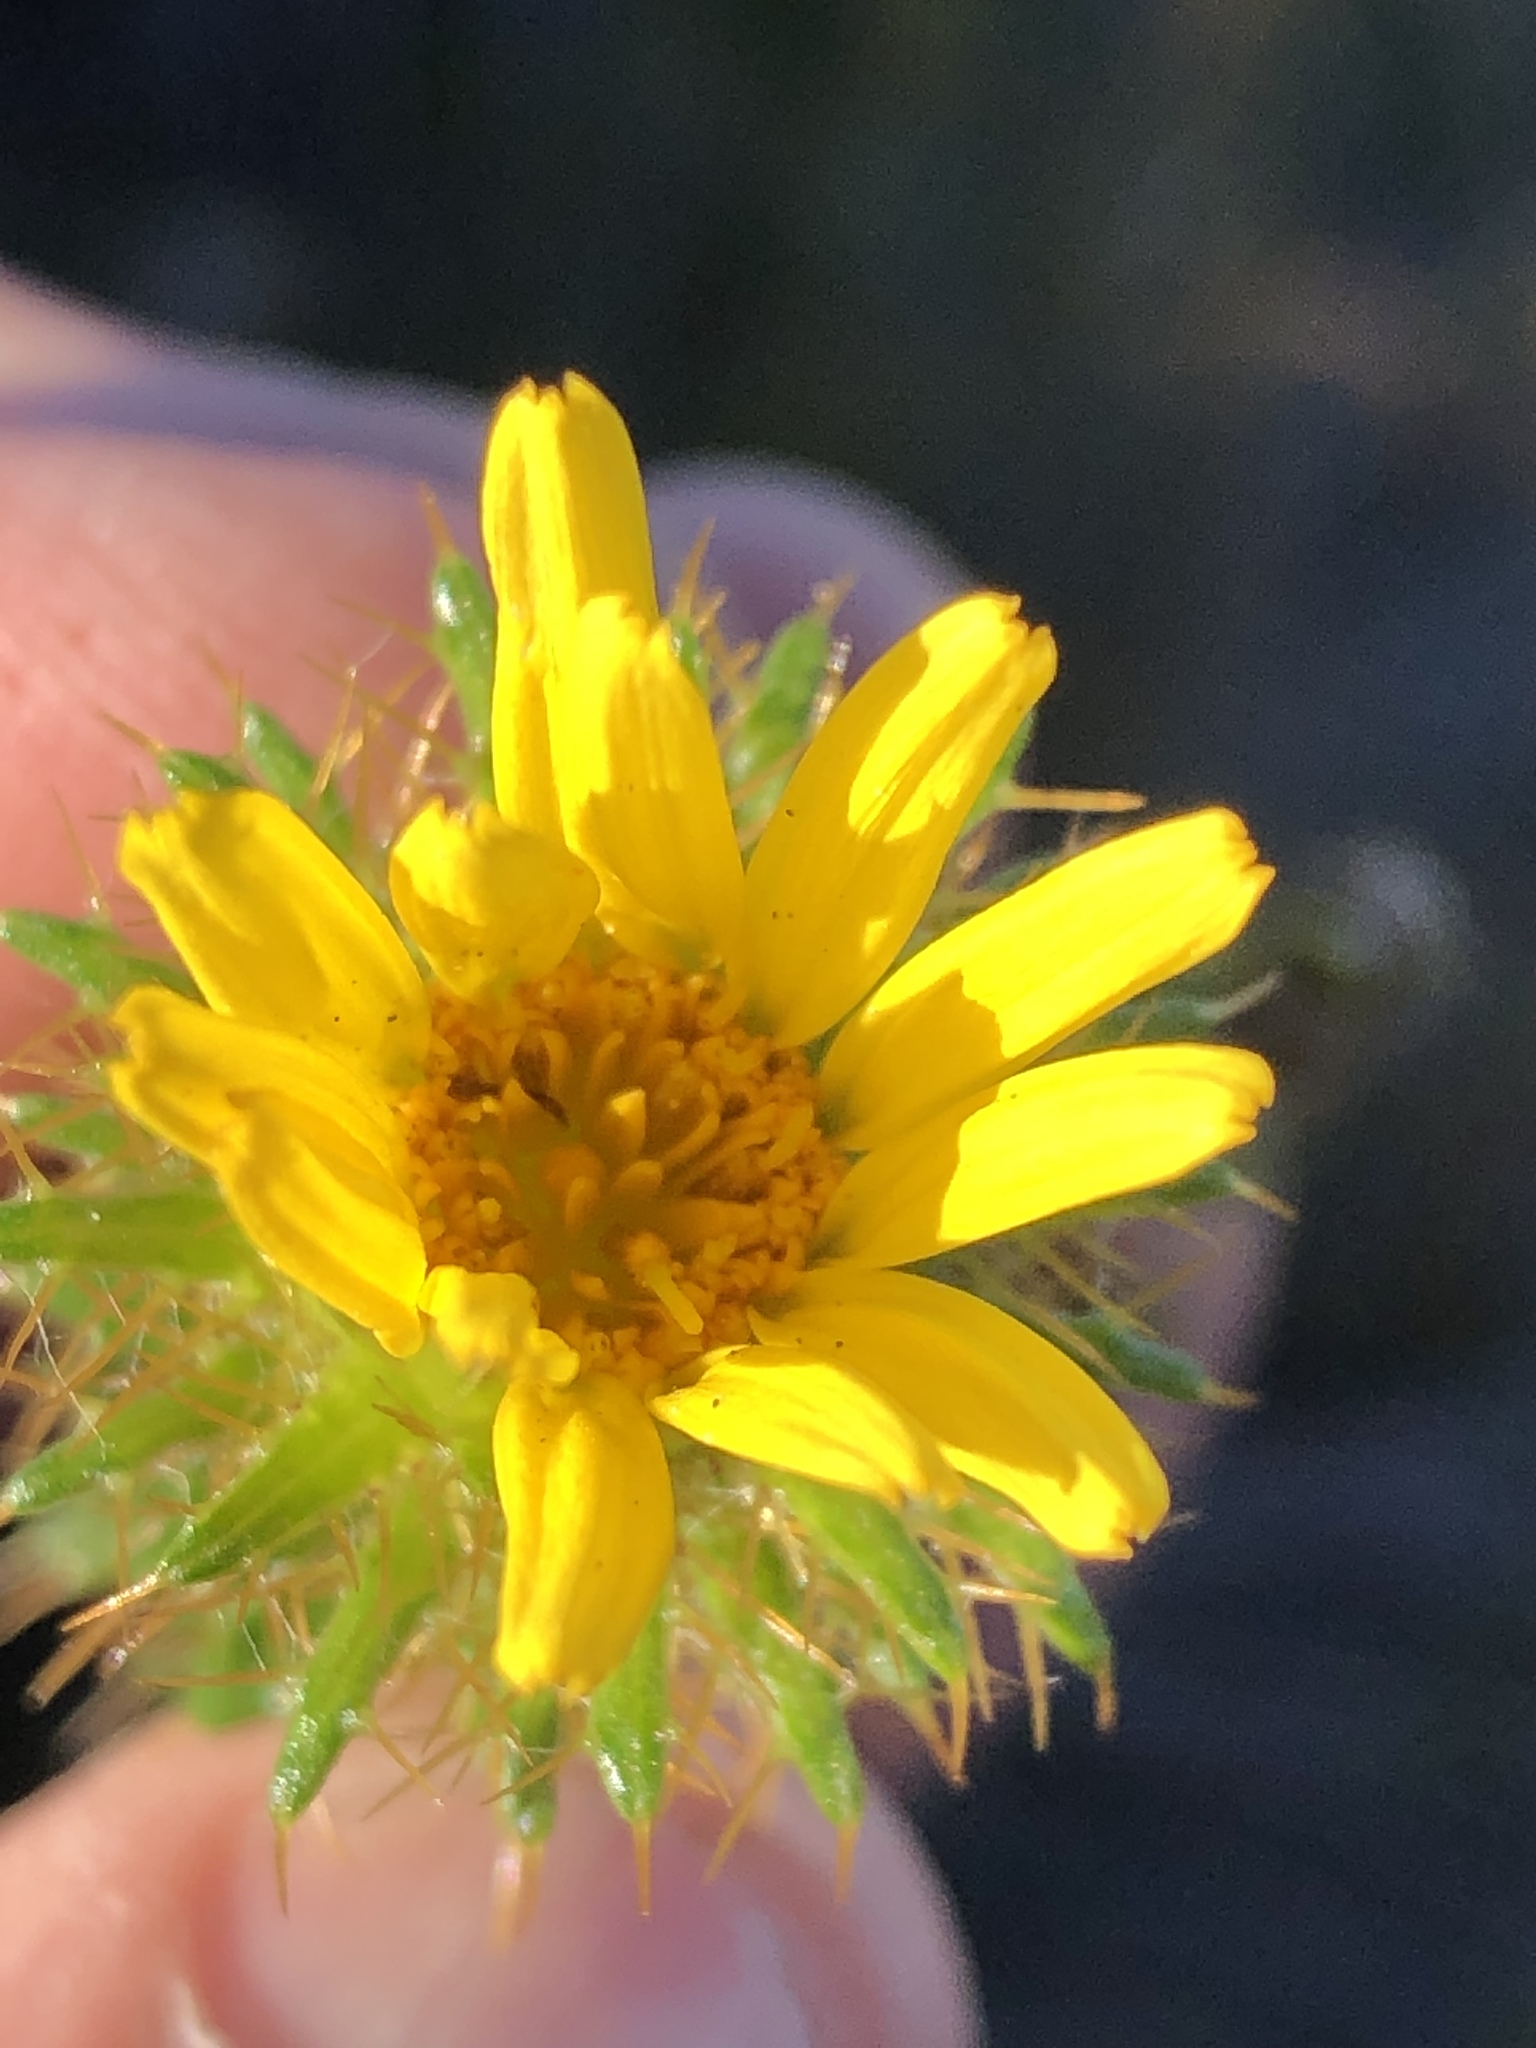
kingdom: Plantae
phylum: Tracheophyta
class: Magnoliopsida
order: Asterales
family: Asteraceae
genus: Cullumia
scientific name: Cullumia carlinoides
